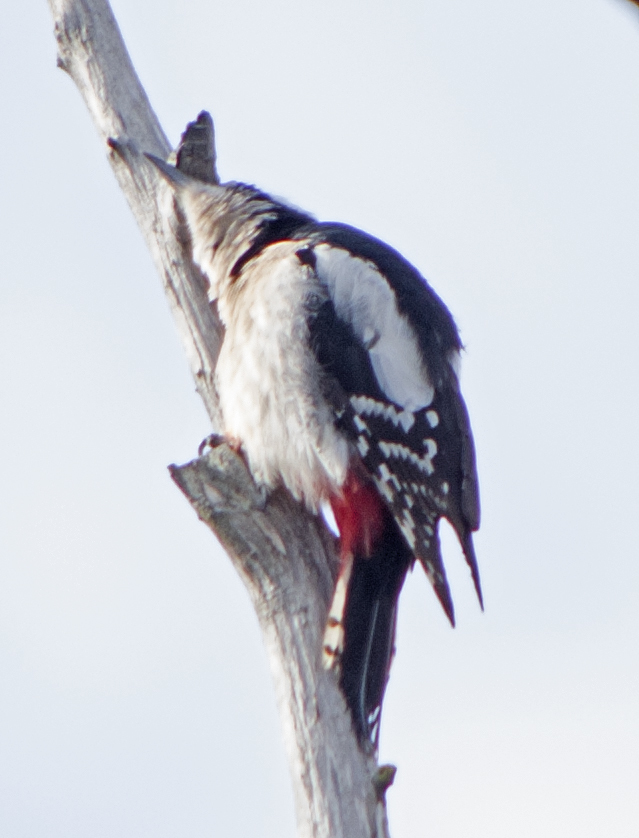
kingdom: Animalia
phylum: Chordata
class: Aves
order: Piciformes
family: Picidae
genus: Dendrocopos
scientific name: Dendrocopos major
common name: Great spotted woodpecker
